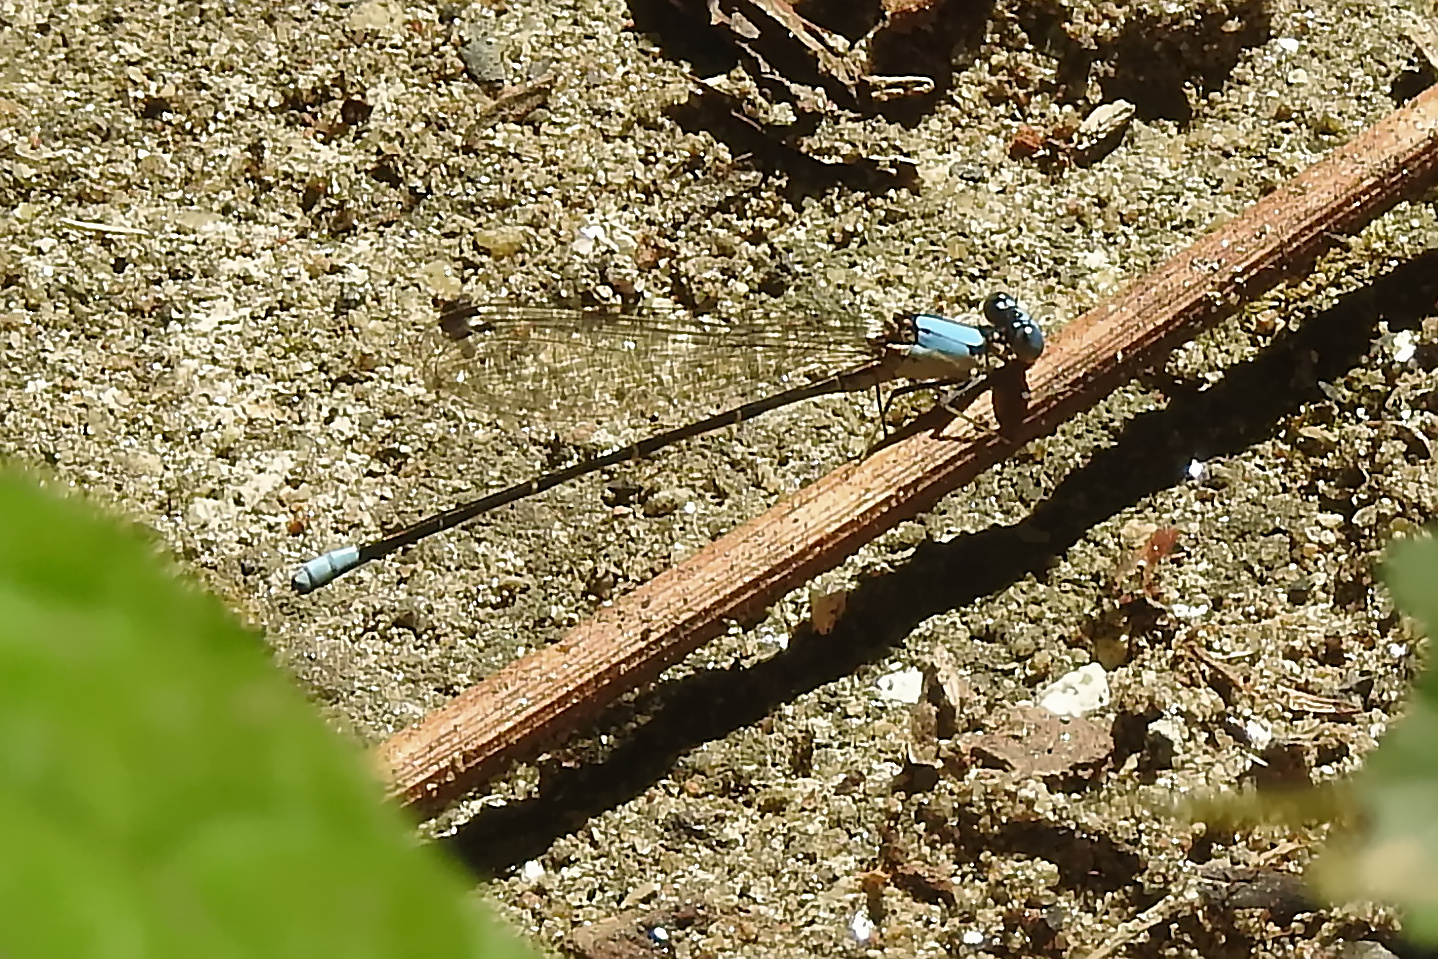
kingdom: Animalia
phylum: Arthropoda
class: Insecta
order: Odonata
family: Coenagrionidae
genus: Argia
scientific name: Argia apicalis
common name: Blue-fronted dancer
